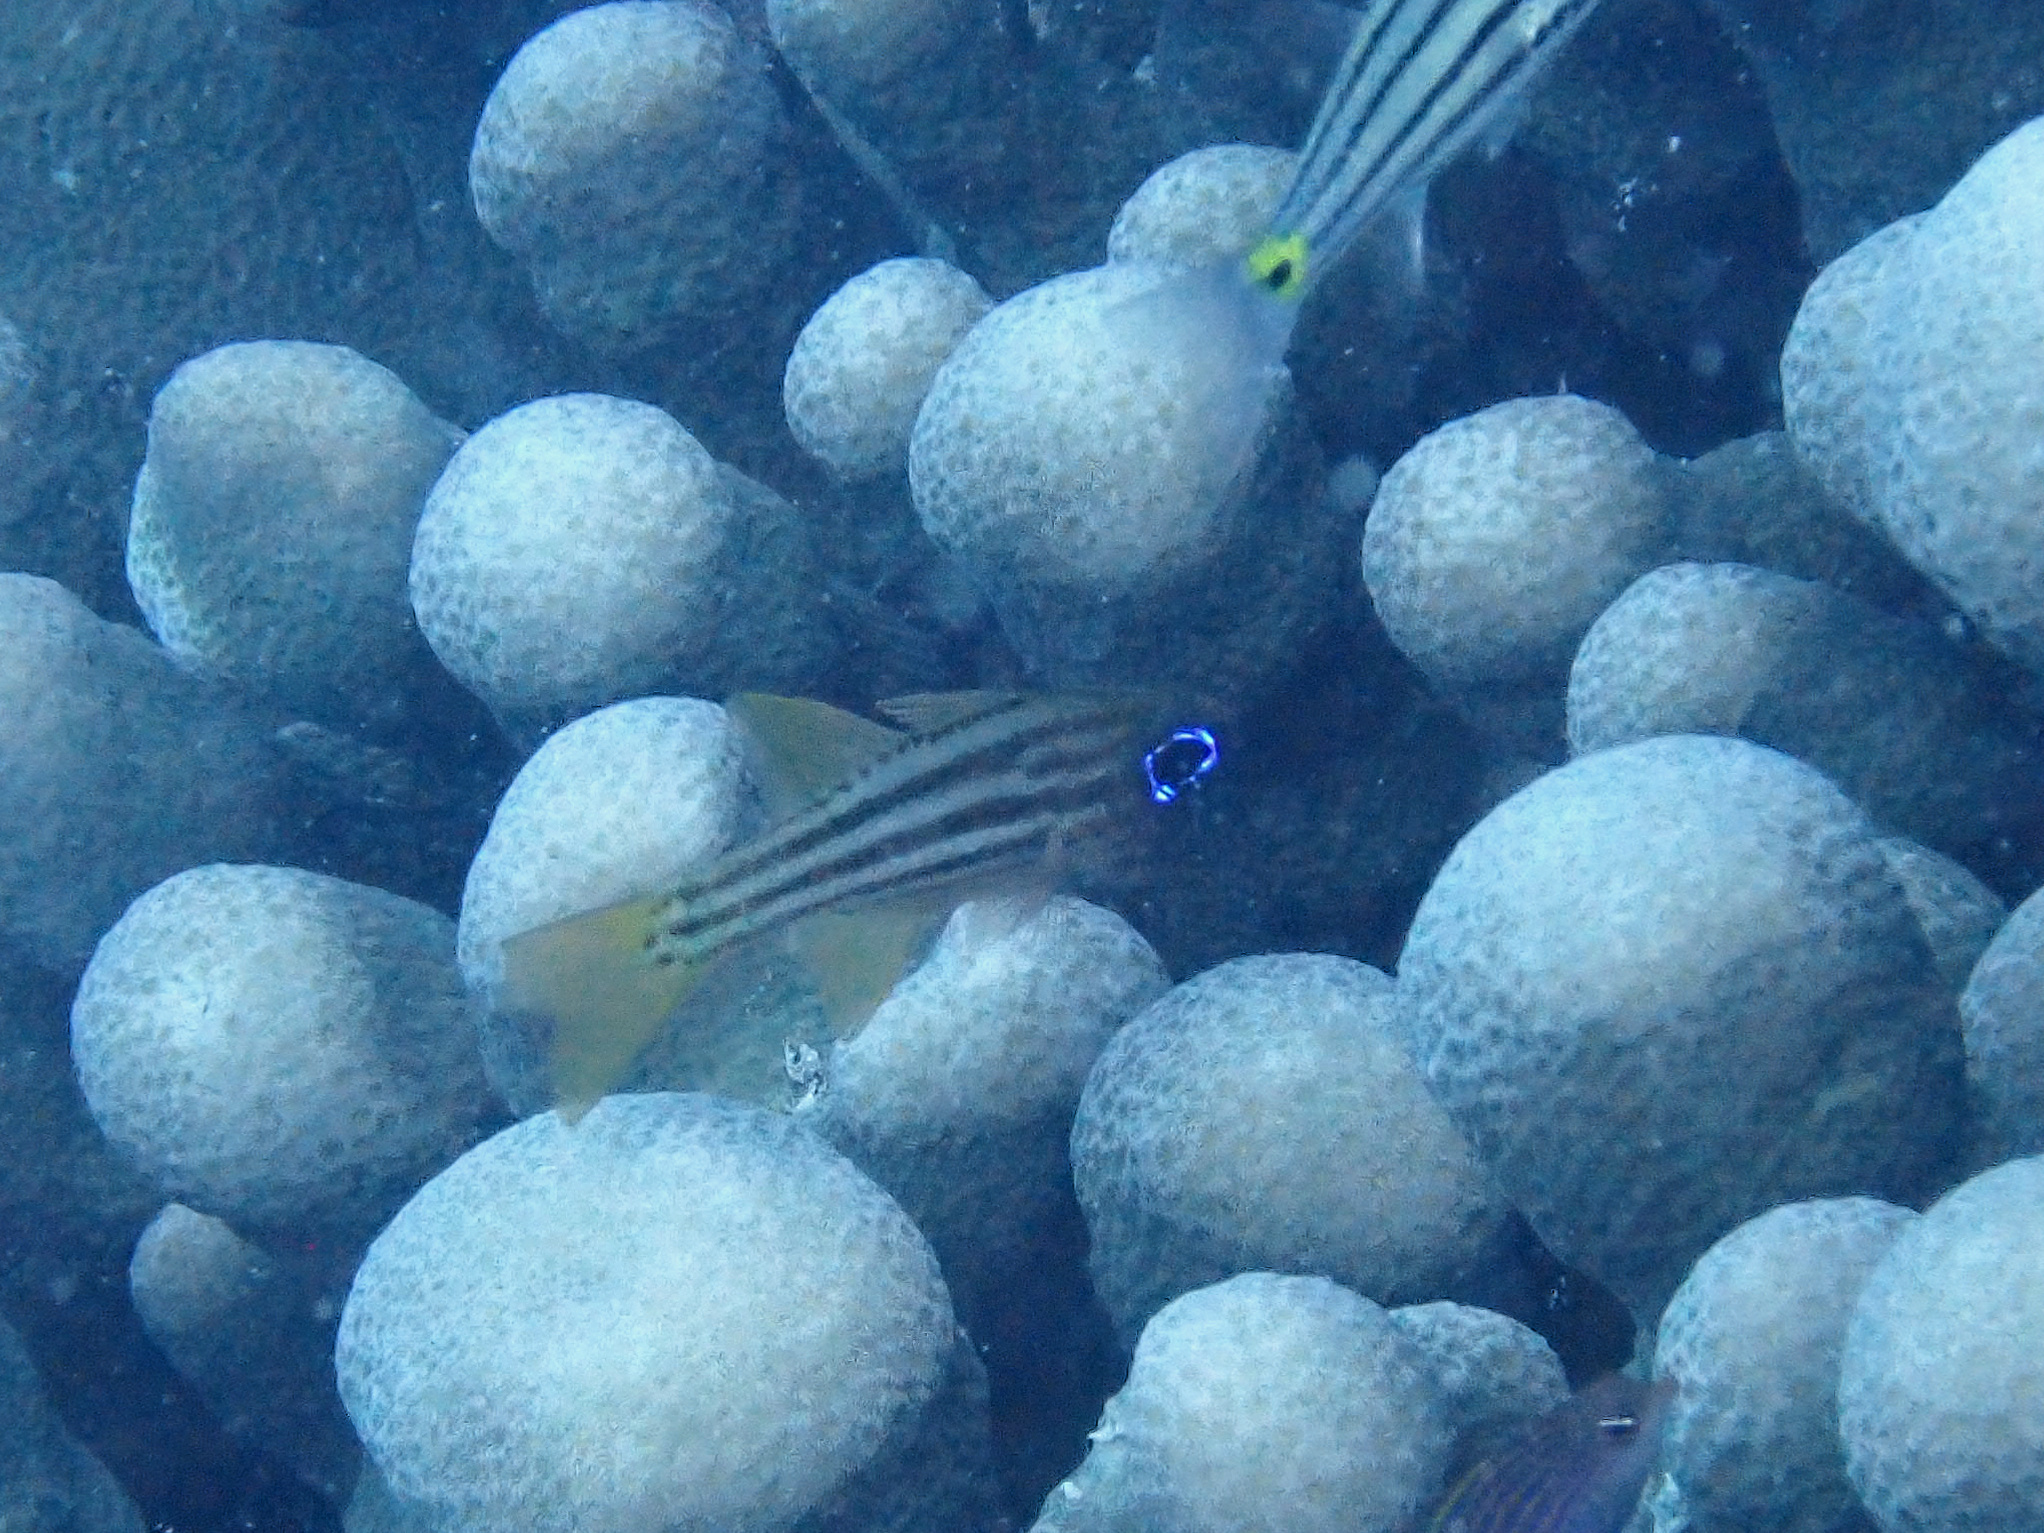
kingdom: Animalia
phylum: Chordata
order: Perciformes
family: Apogonidae
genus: Ostorhinchus
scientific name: Ostorhinchus compressus
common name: Ochre-striped cardinalfish
